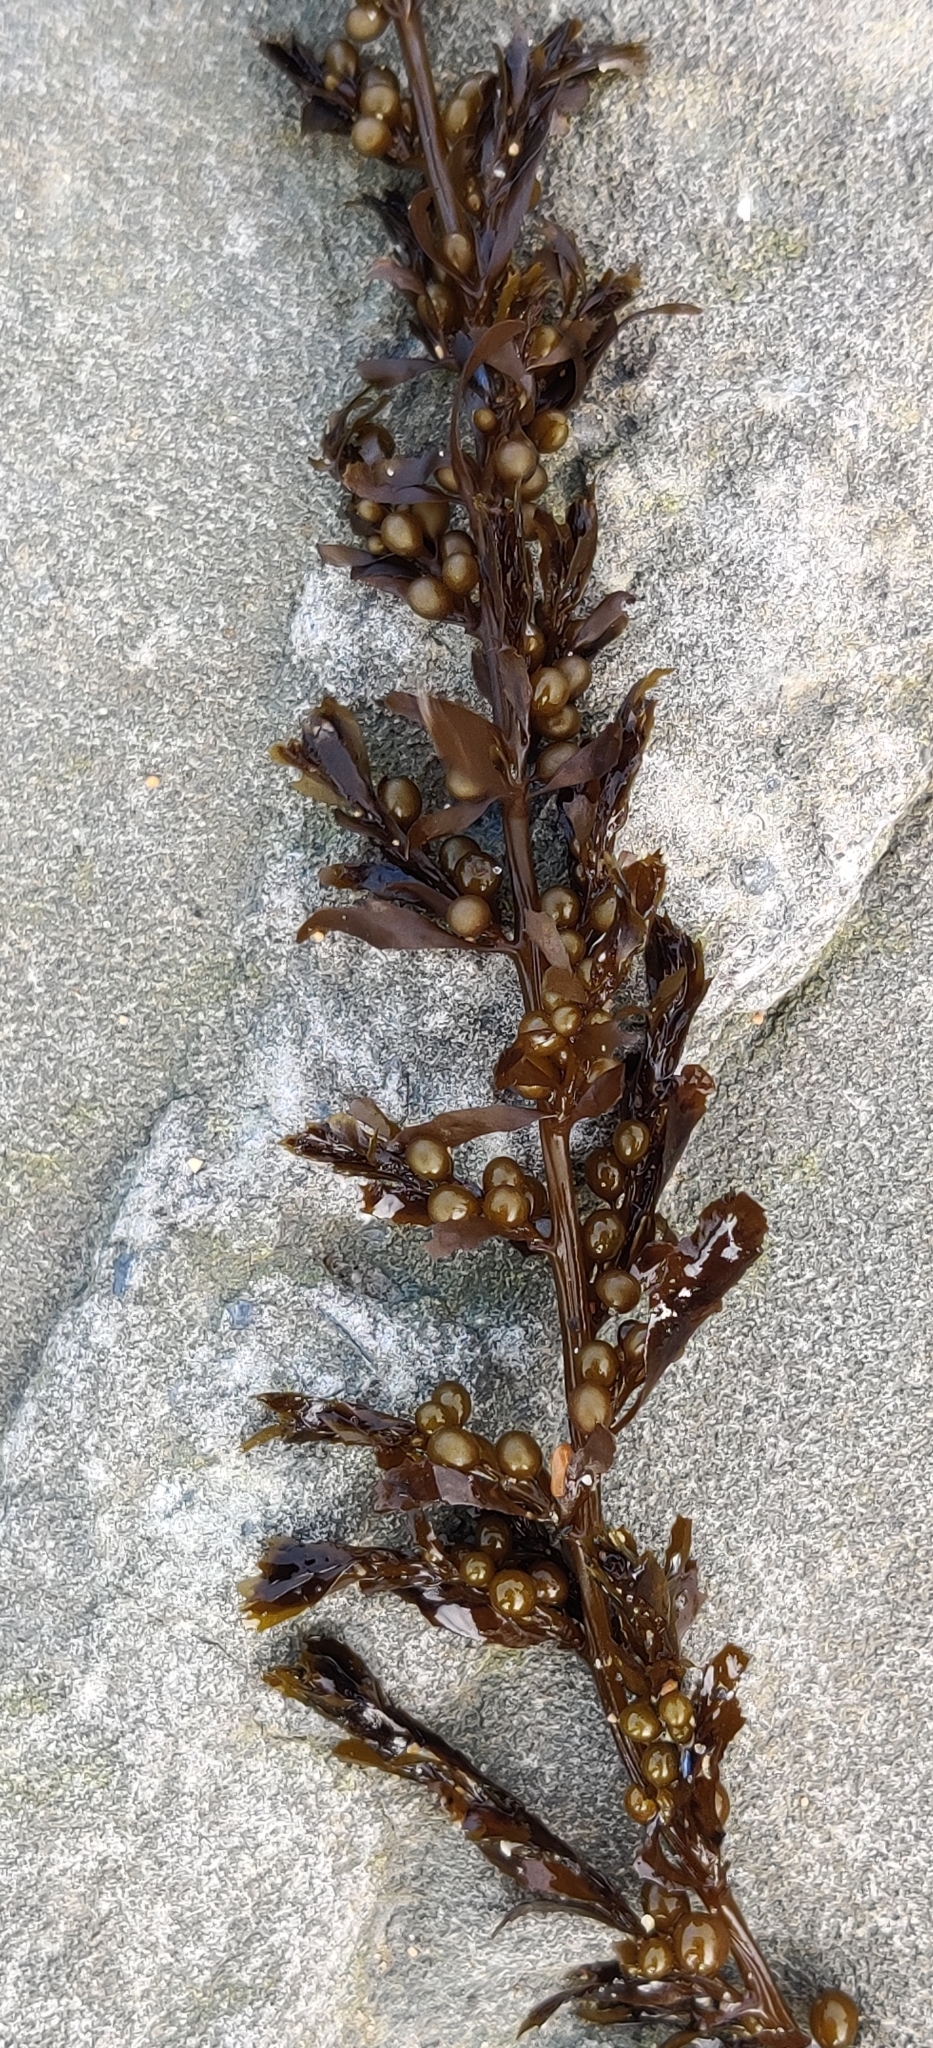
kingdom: Chromista
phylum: Ochrophyta
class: Phaeophyceae
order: Fucales
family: Sargassaceae
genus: Sargassum
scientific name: Sargassum muticum
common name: Japweed
